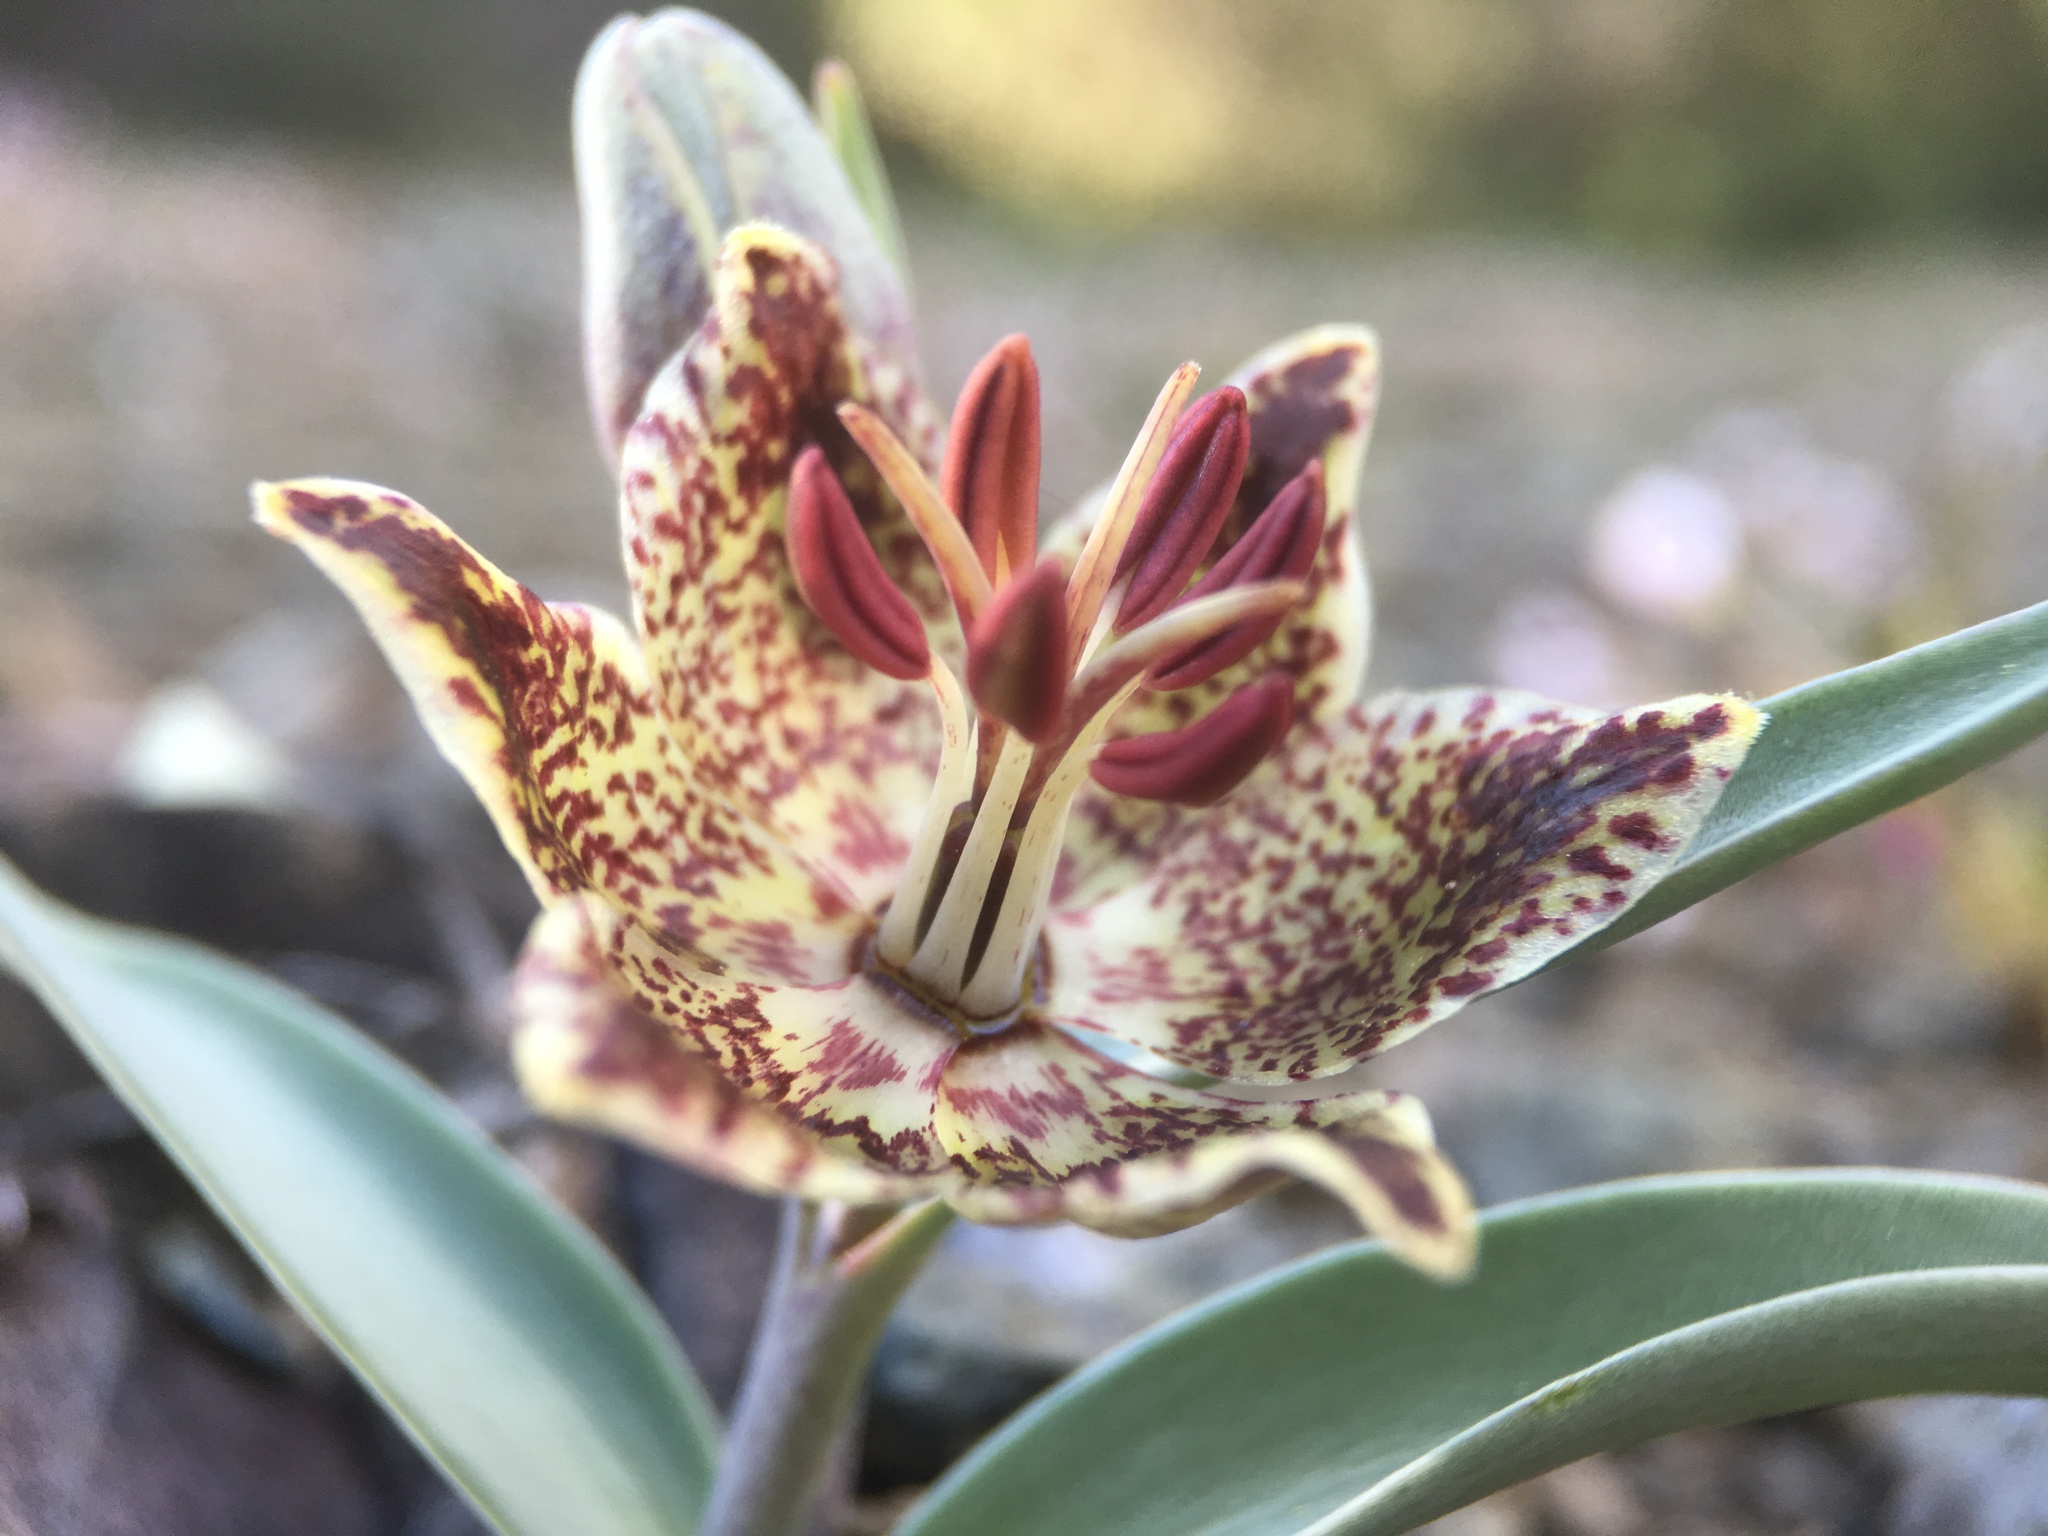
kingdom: Plantae
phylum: Tracheophyta
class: Liliopsida
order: Liliales
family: Liliaceae
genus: Fritillaria
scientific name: Fritillaria falcata
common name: Talus fritillary
